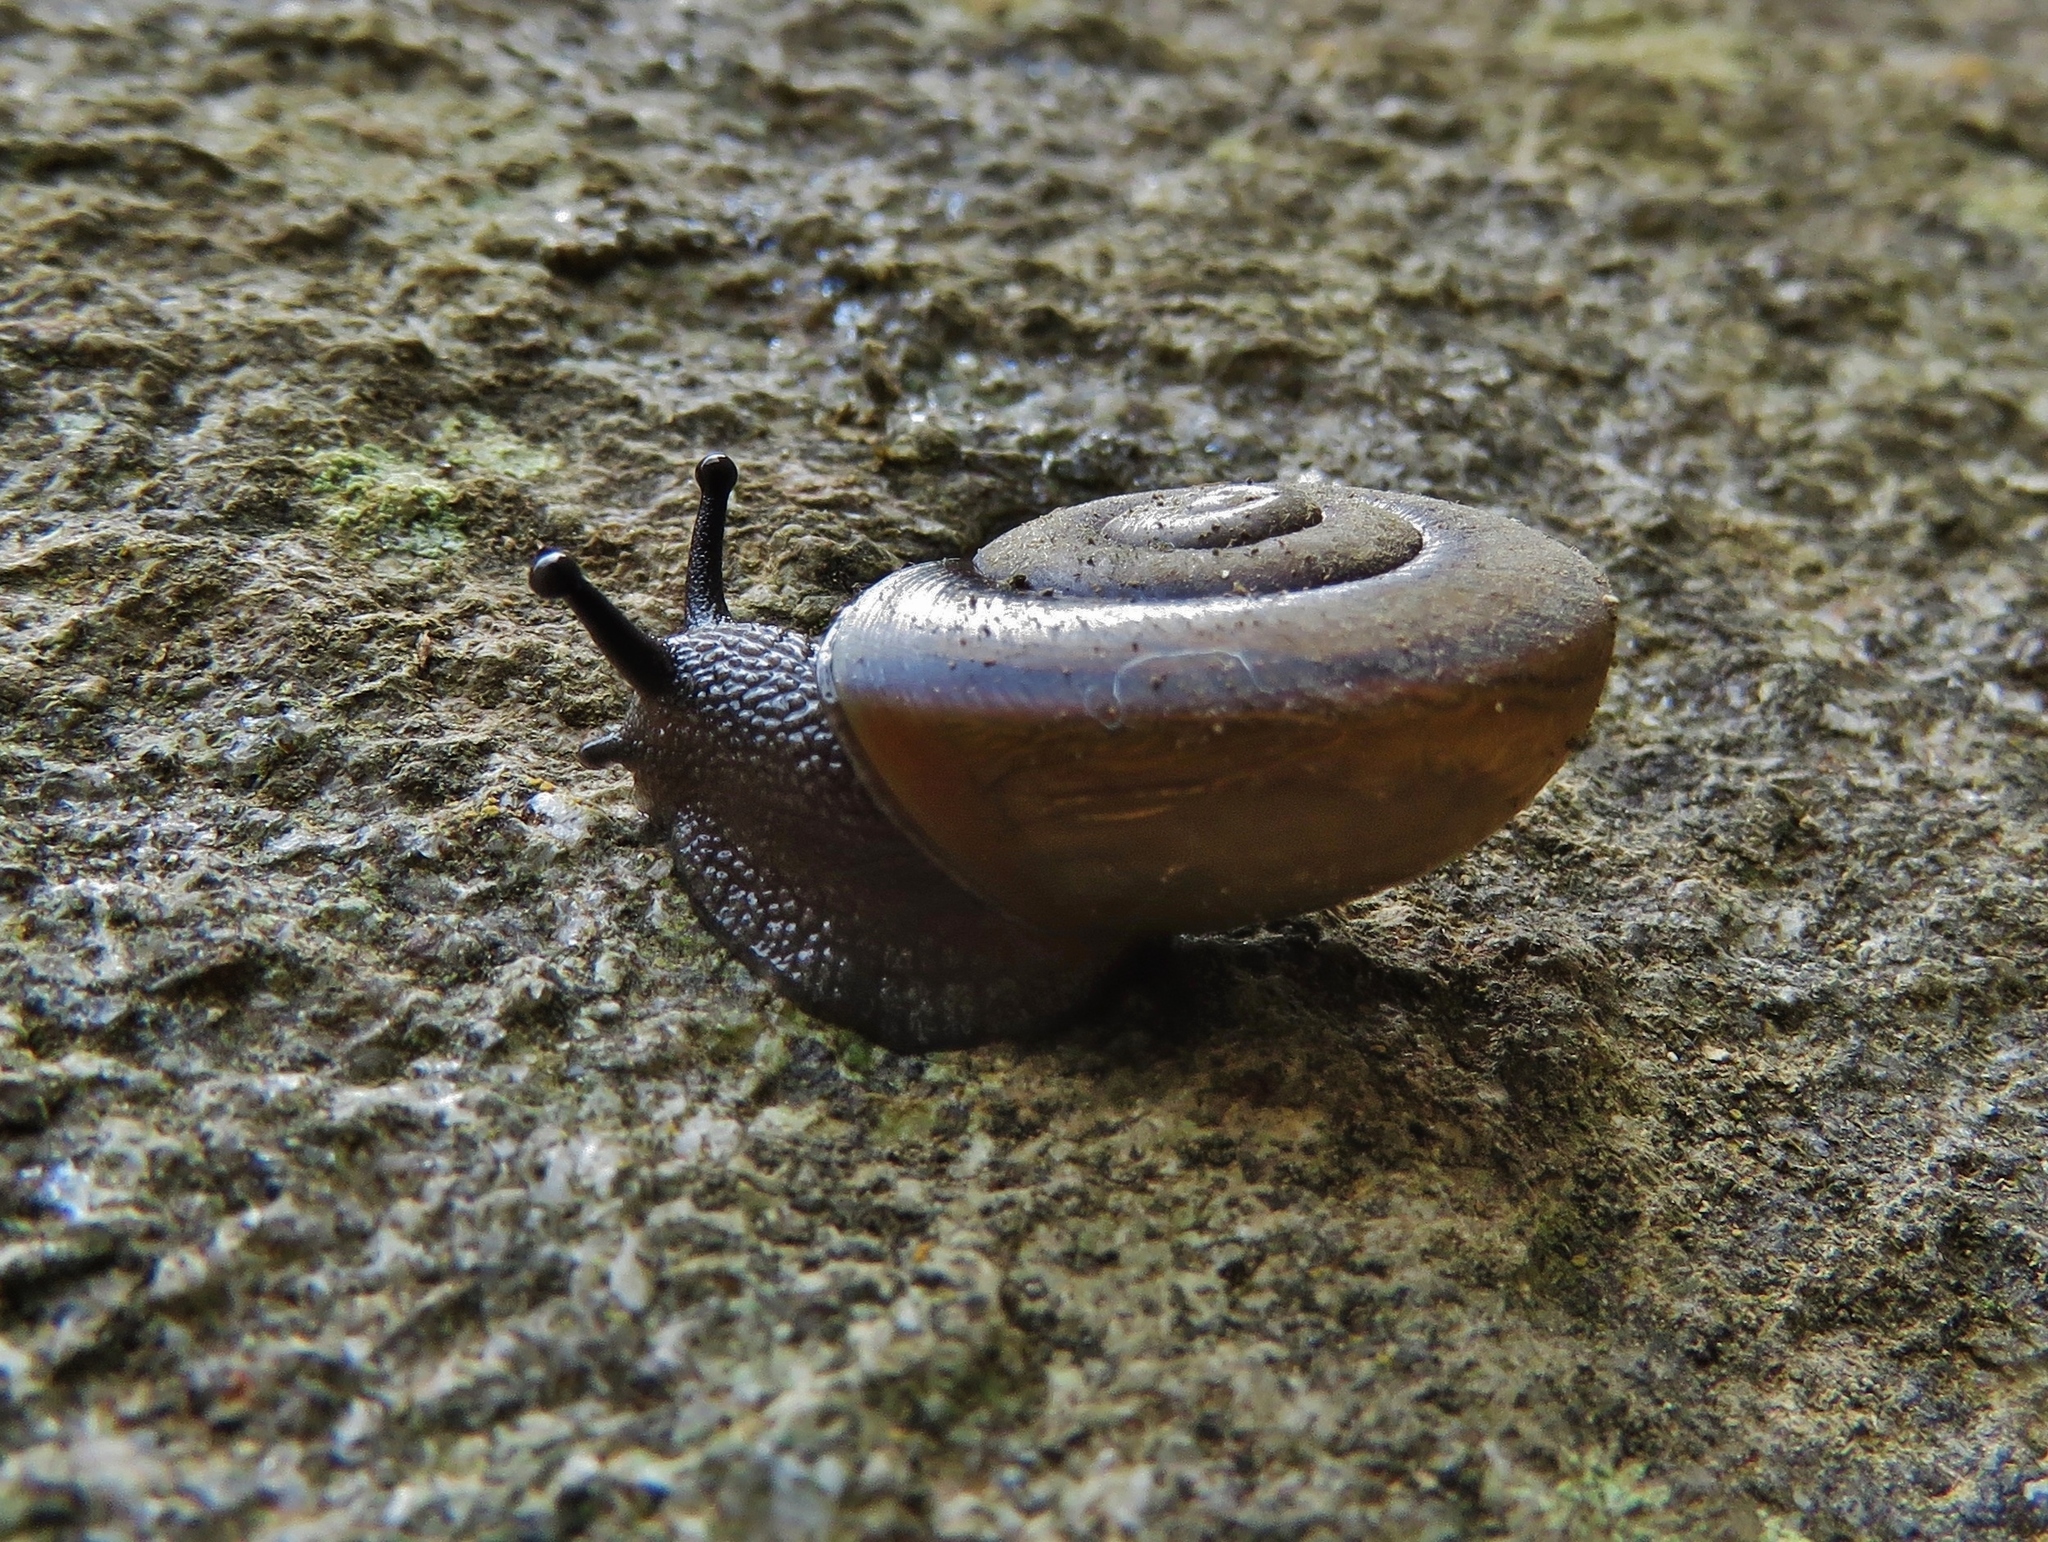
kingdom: Animalia
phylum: Mollusca
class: Gastropoda
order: Stylommatophora
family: Epiphragmophoridae
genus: Epiphragmophora
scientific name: Epiphragmophora diluta
